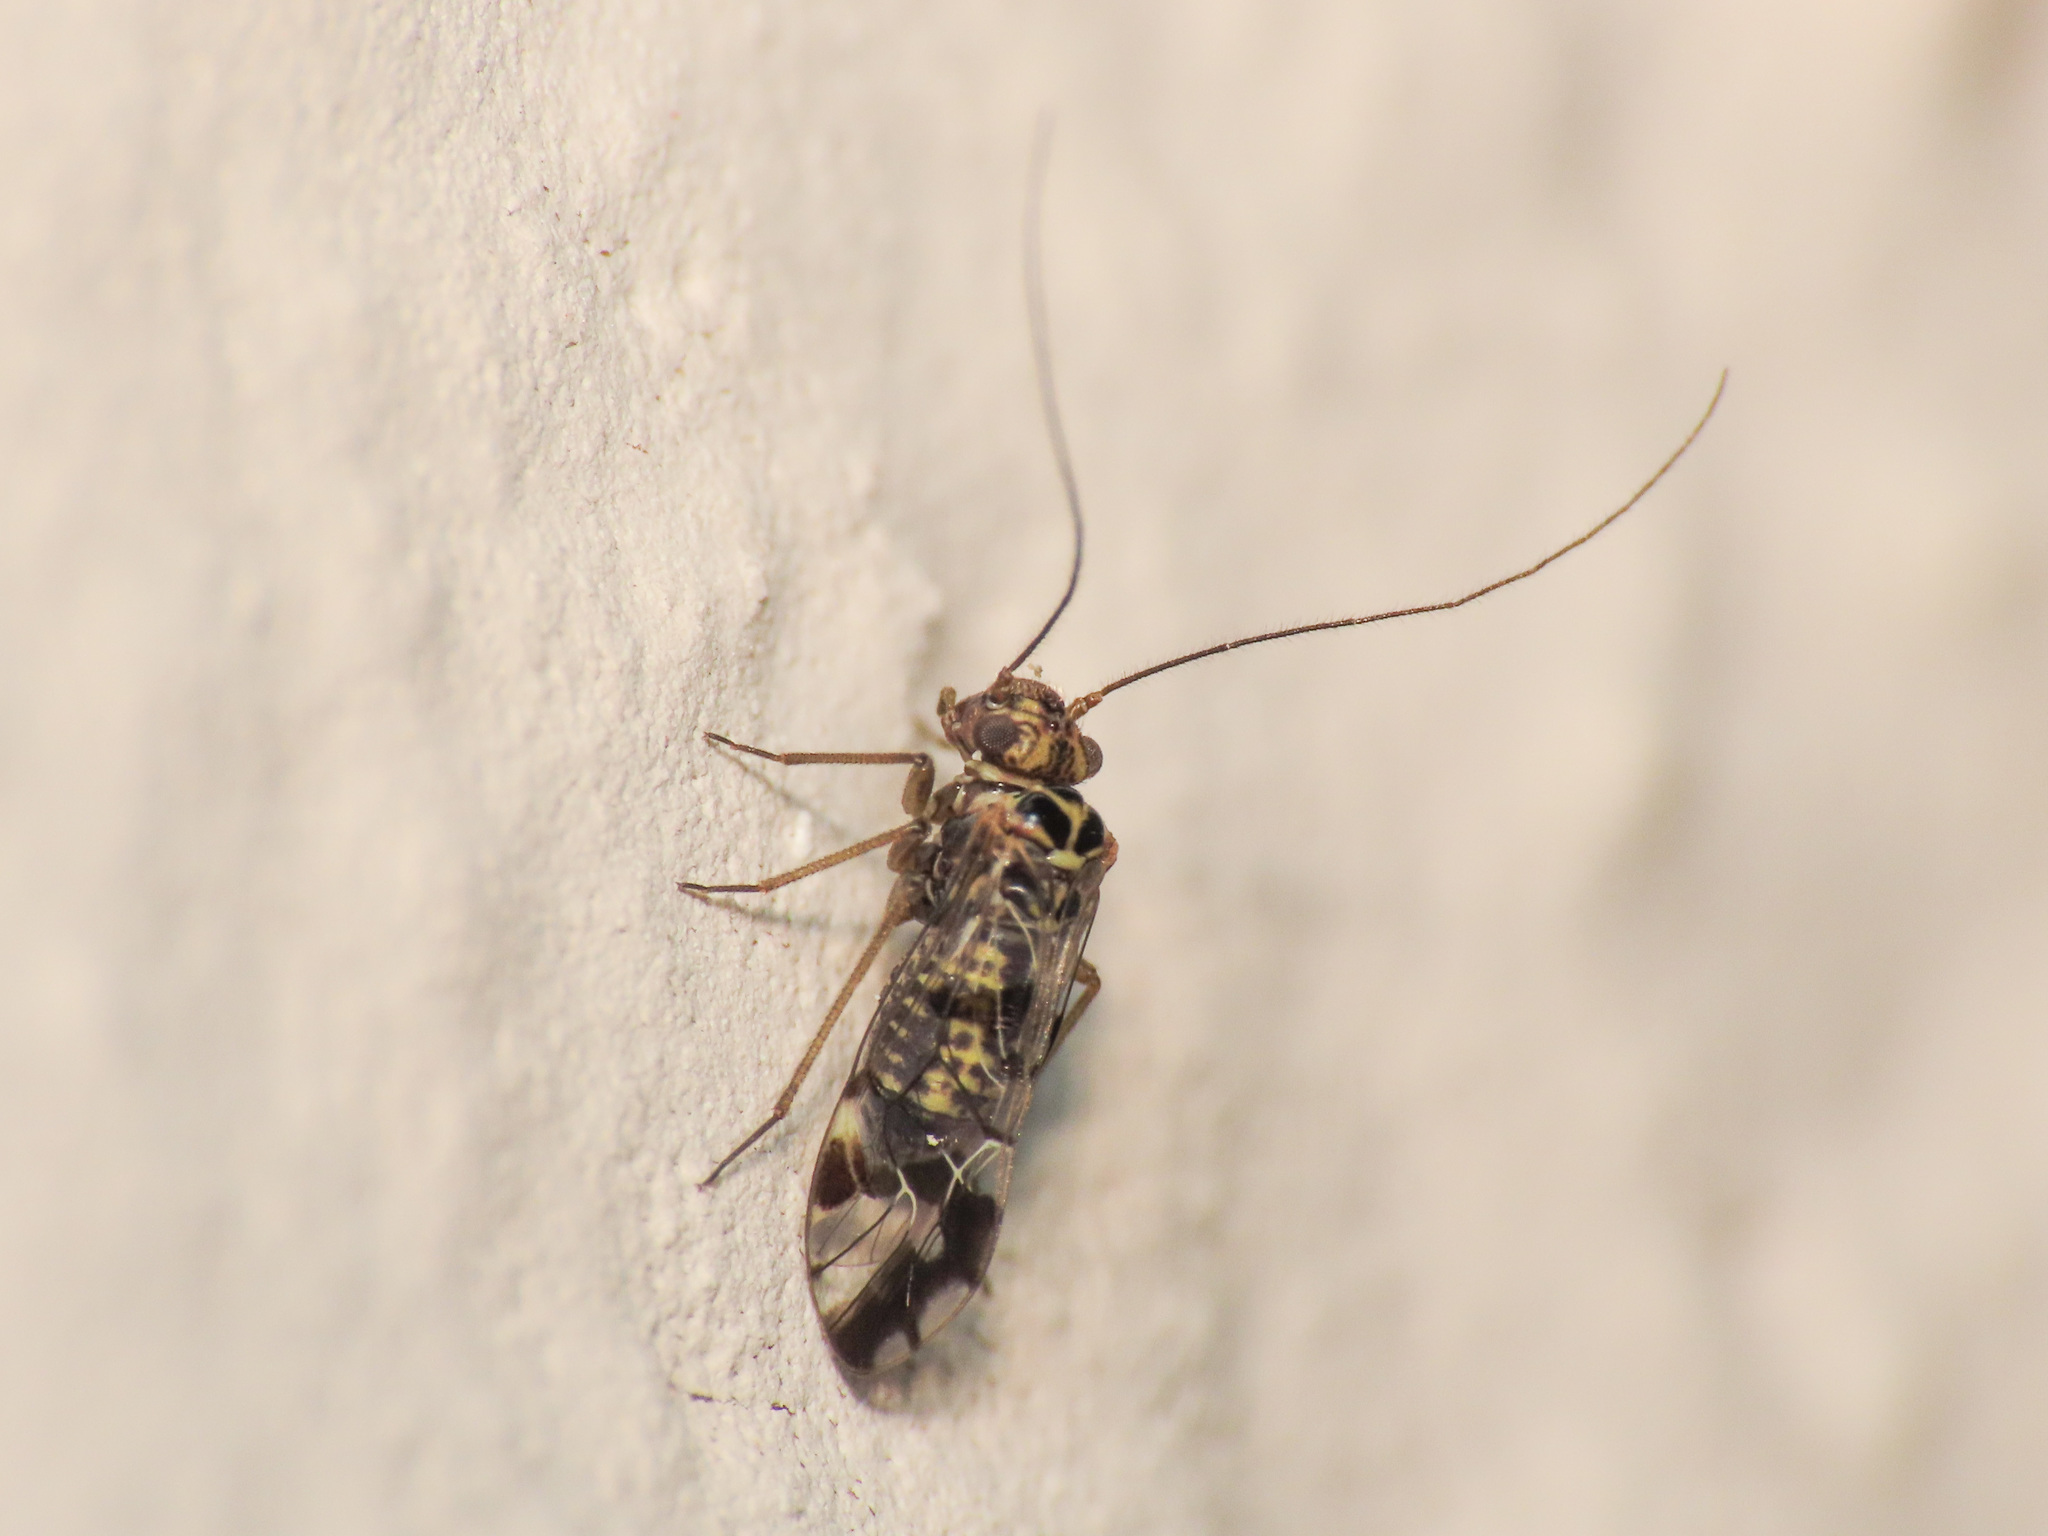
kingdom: Animalia
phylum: Arthropoda
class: Insecta
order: Psocodea
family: Psocidae
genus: Neopsocus
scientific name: Neopsocus rhenanus
